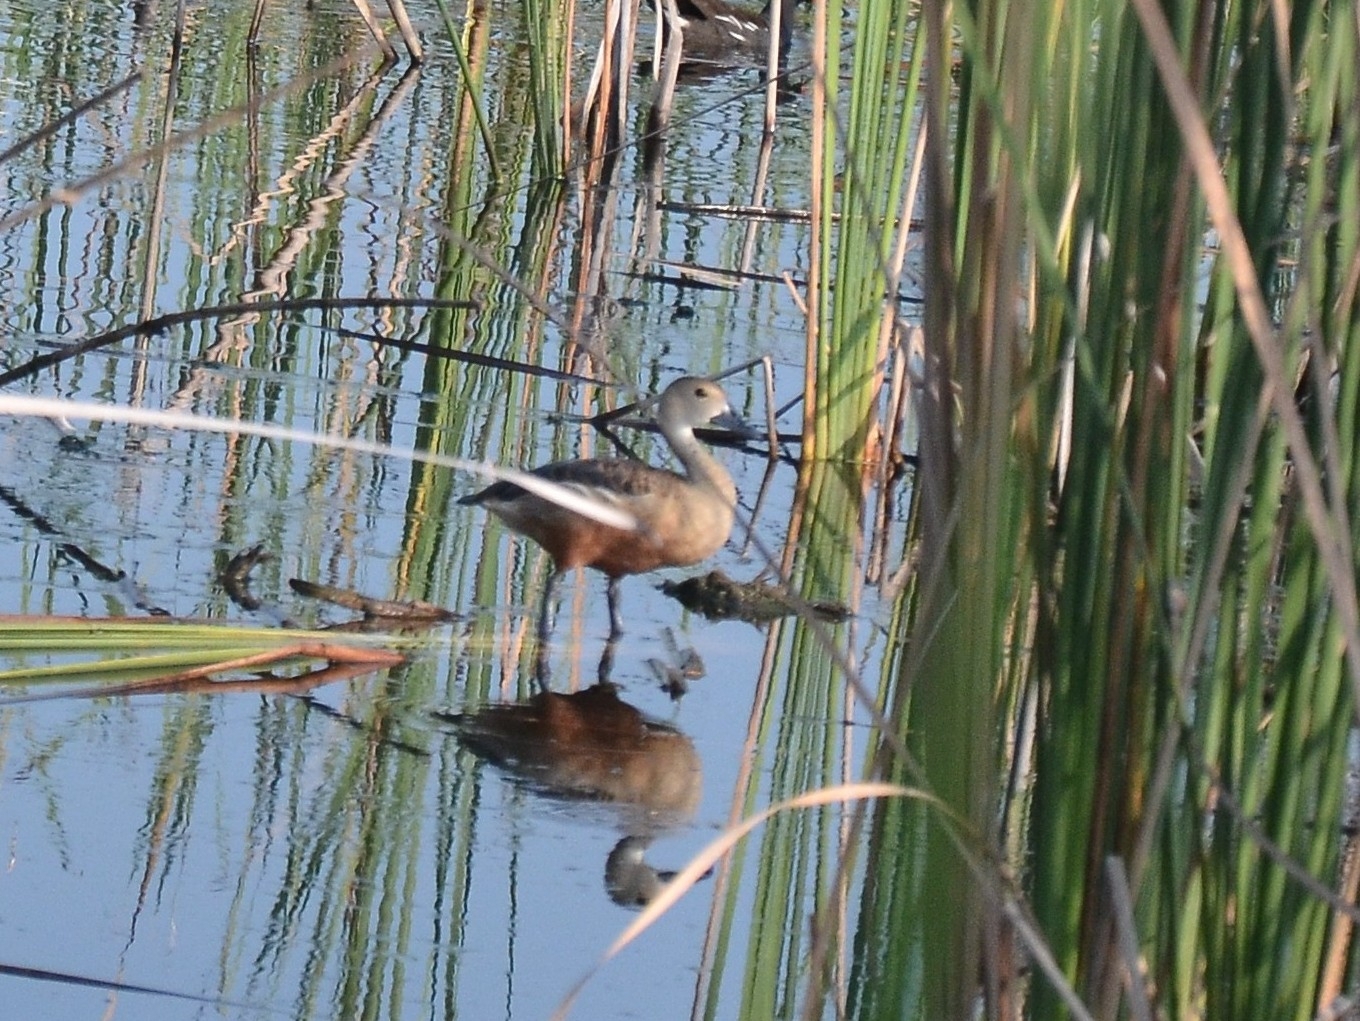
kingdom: Animalia
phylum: Chordata
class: Aves
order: Anseriformes
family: Anatidae
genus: Dendrocygna
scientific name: Dendrocygna javanica
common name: Lesser whistling-duck
